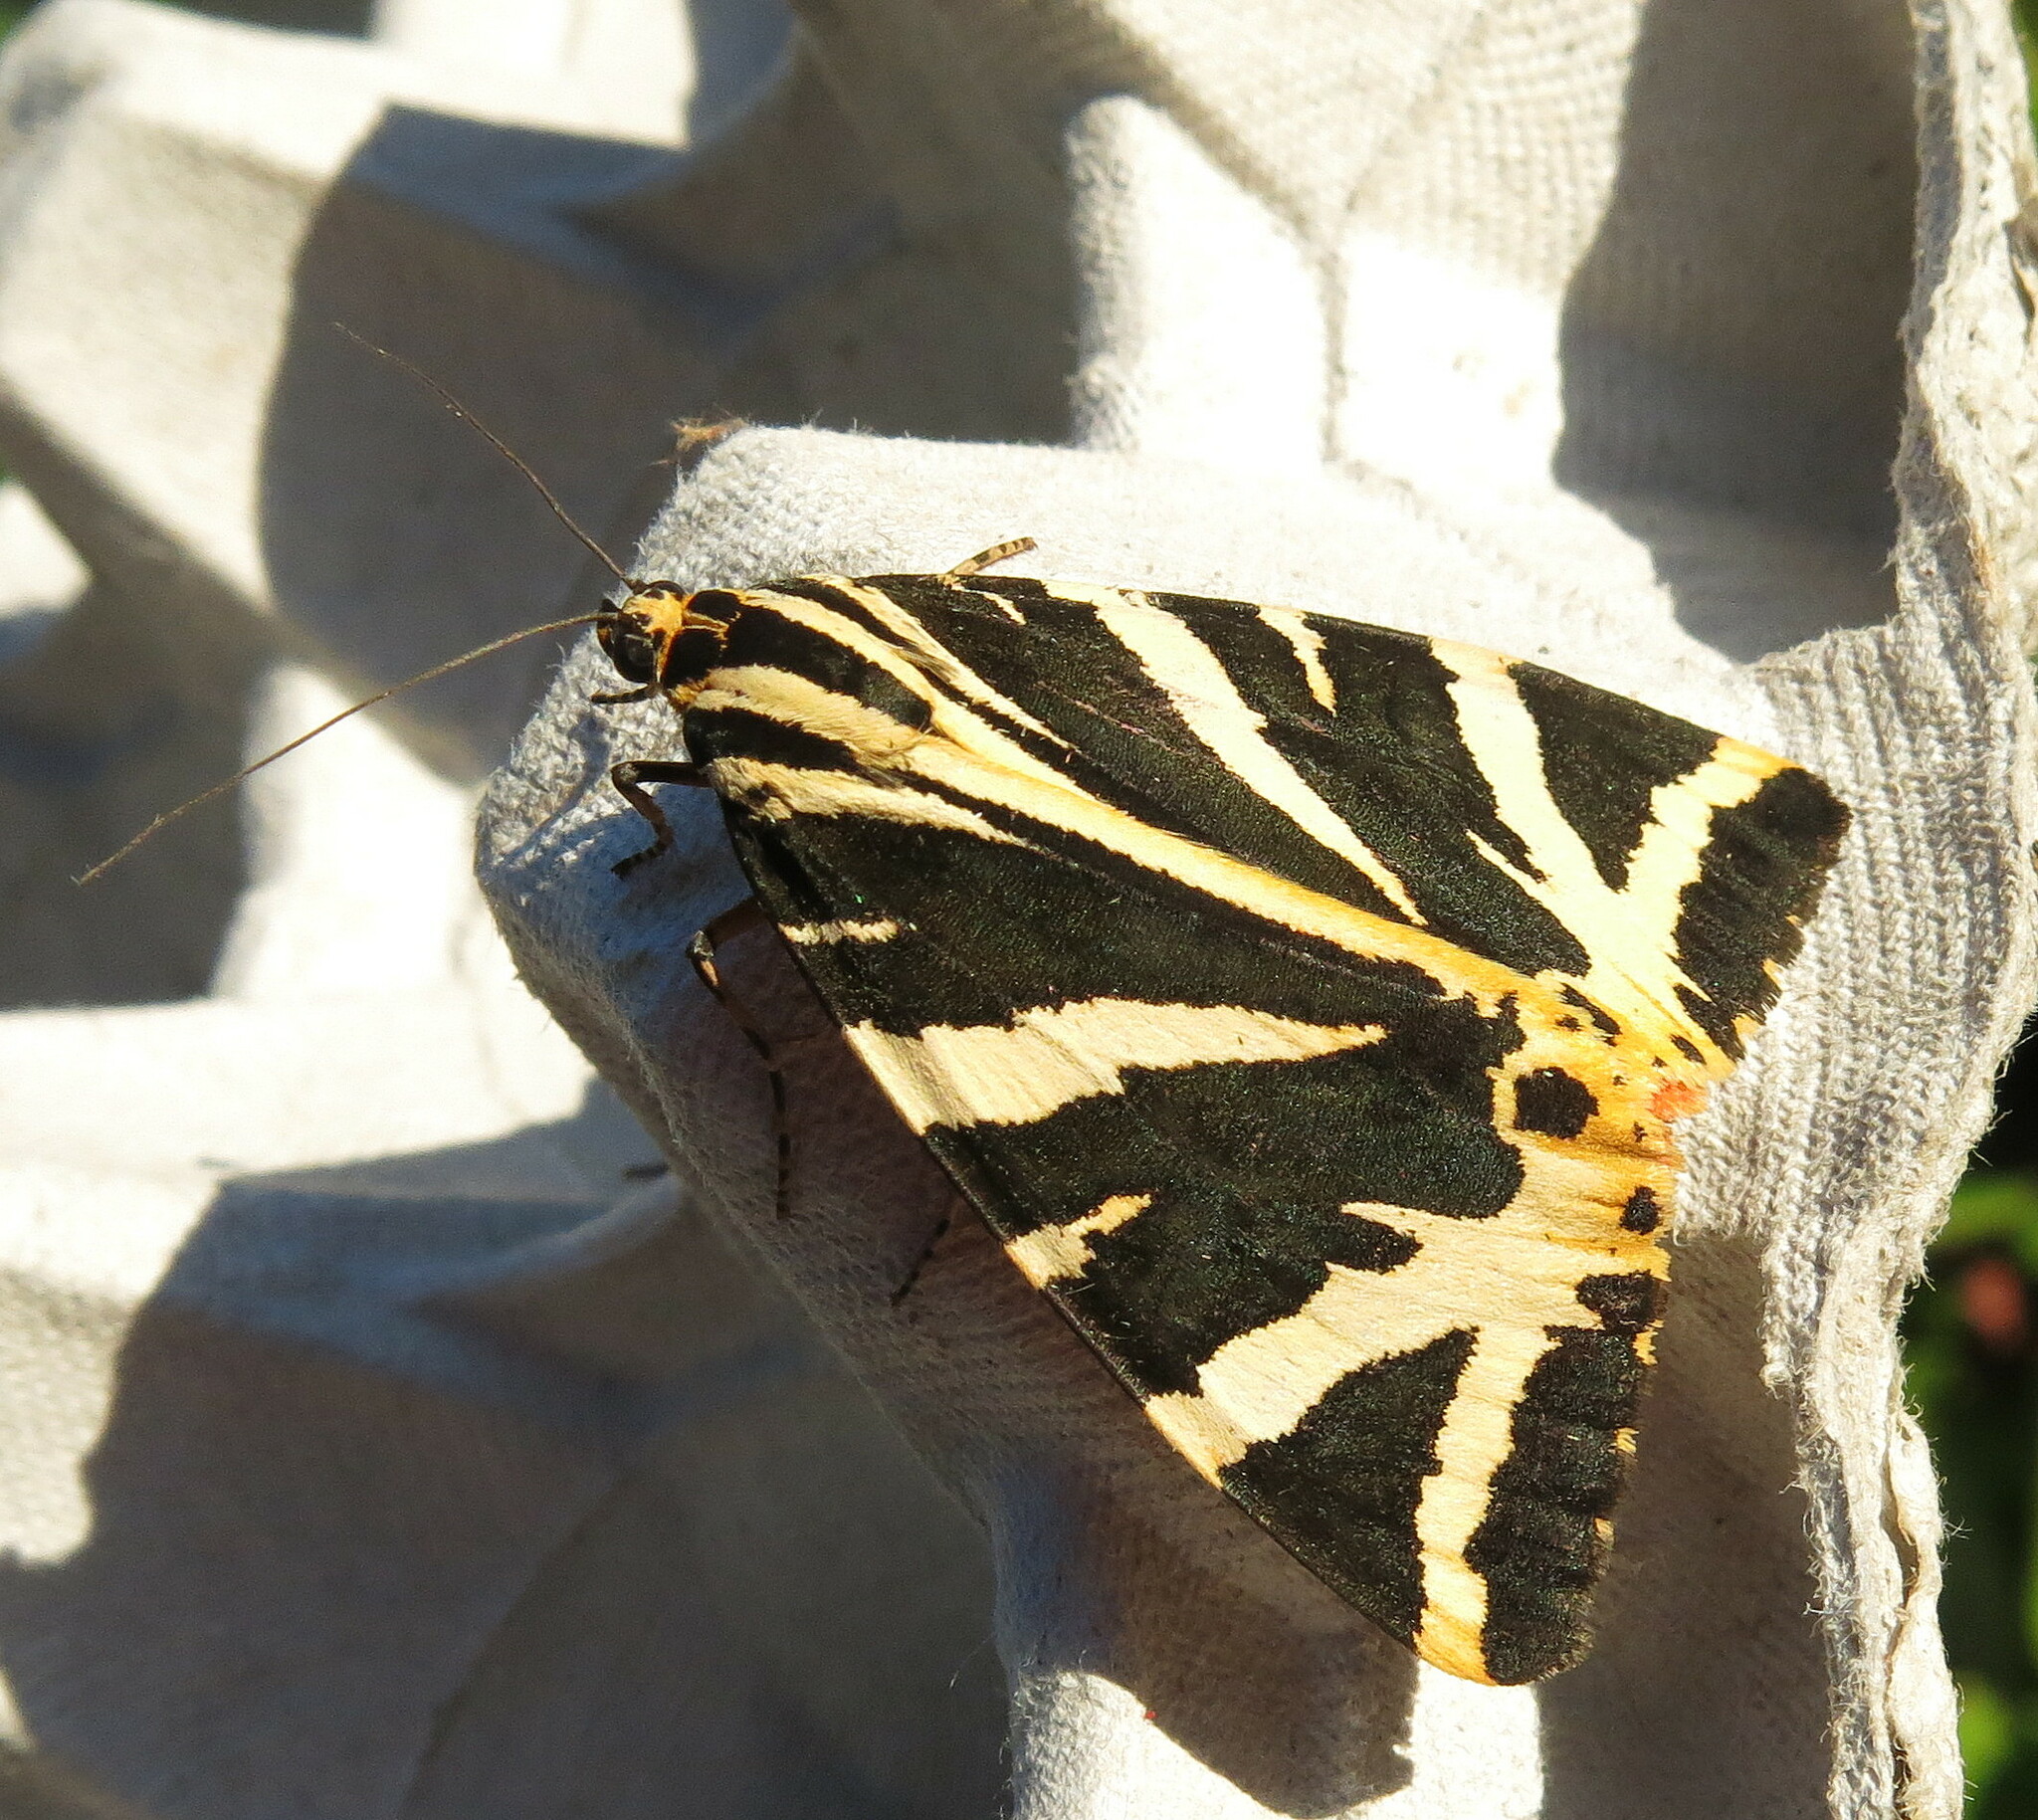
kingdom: Animalia
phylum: Arthropoda
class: Insecta
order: Lepidoptera
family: Erebidae
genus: Euplagia
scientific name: Euplagia quadripunctaria
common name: Jersey tiger
